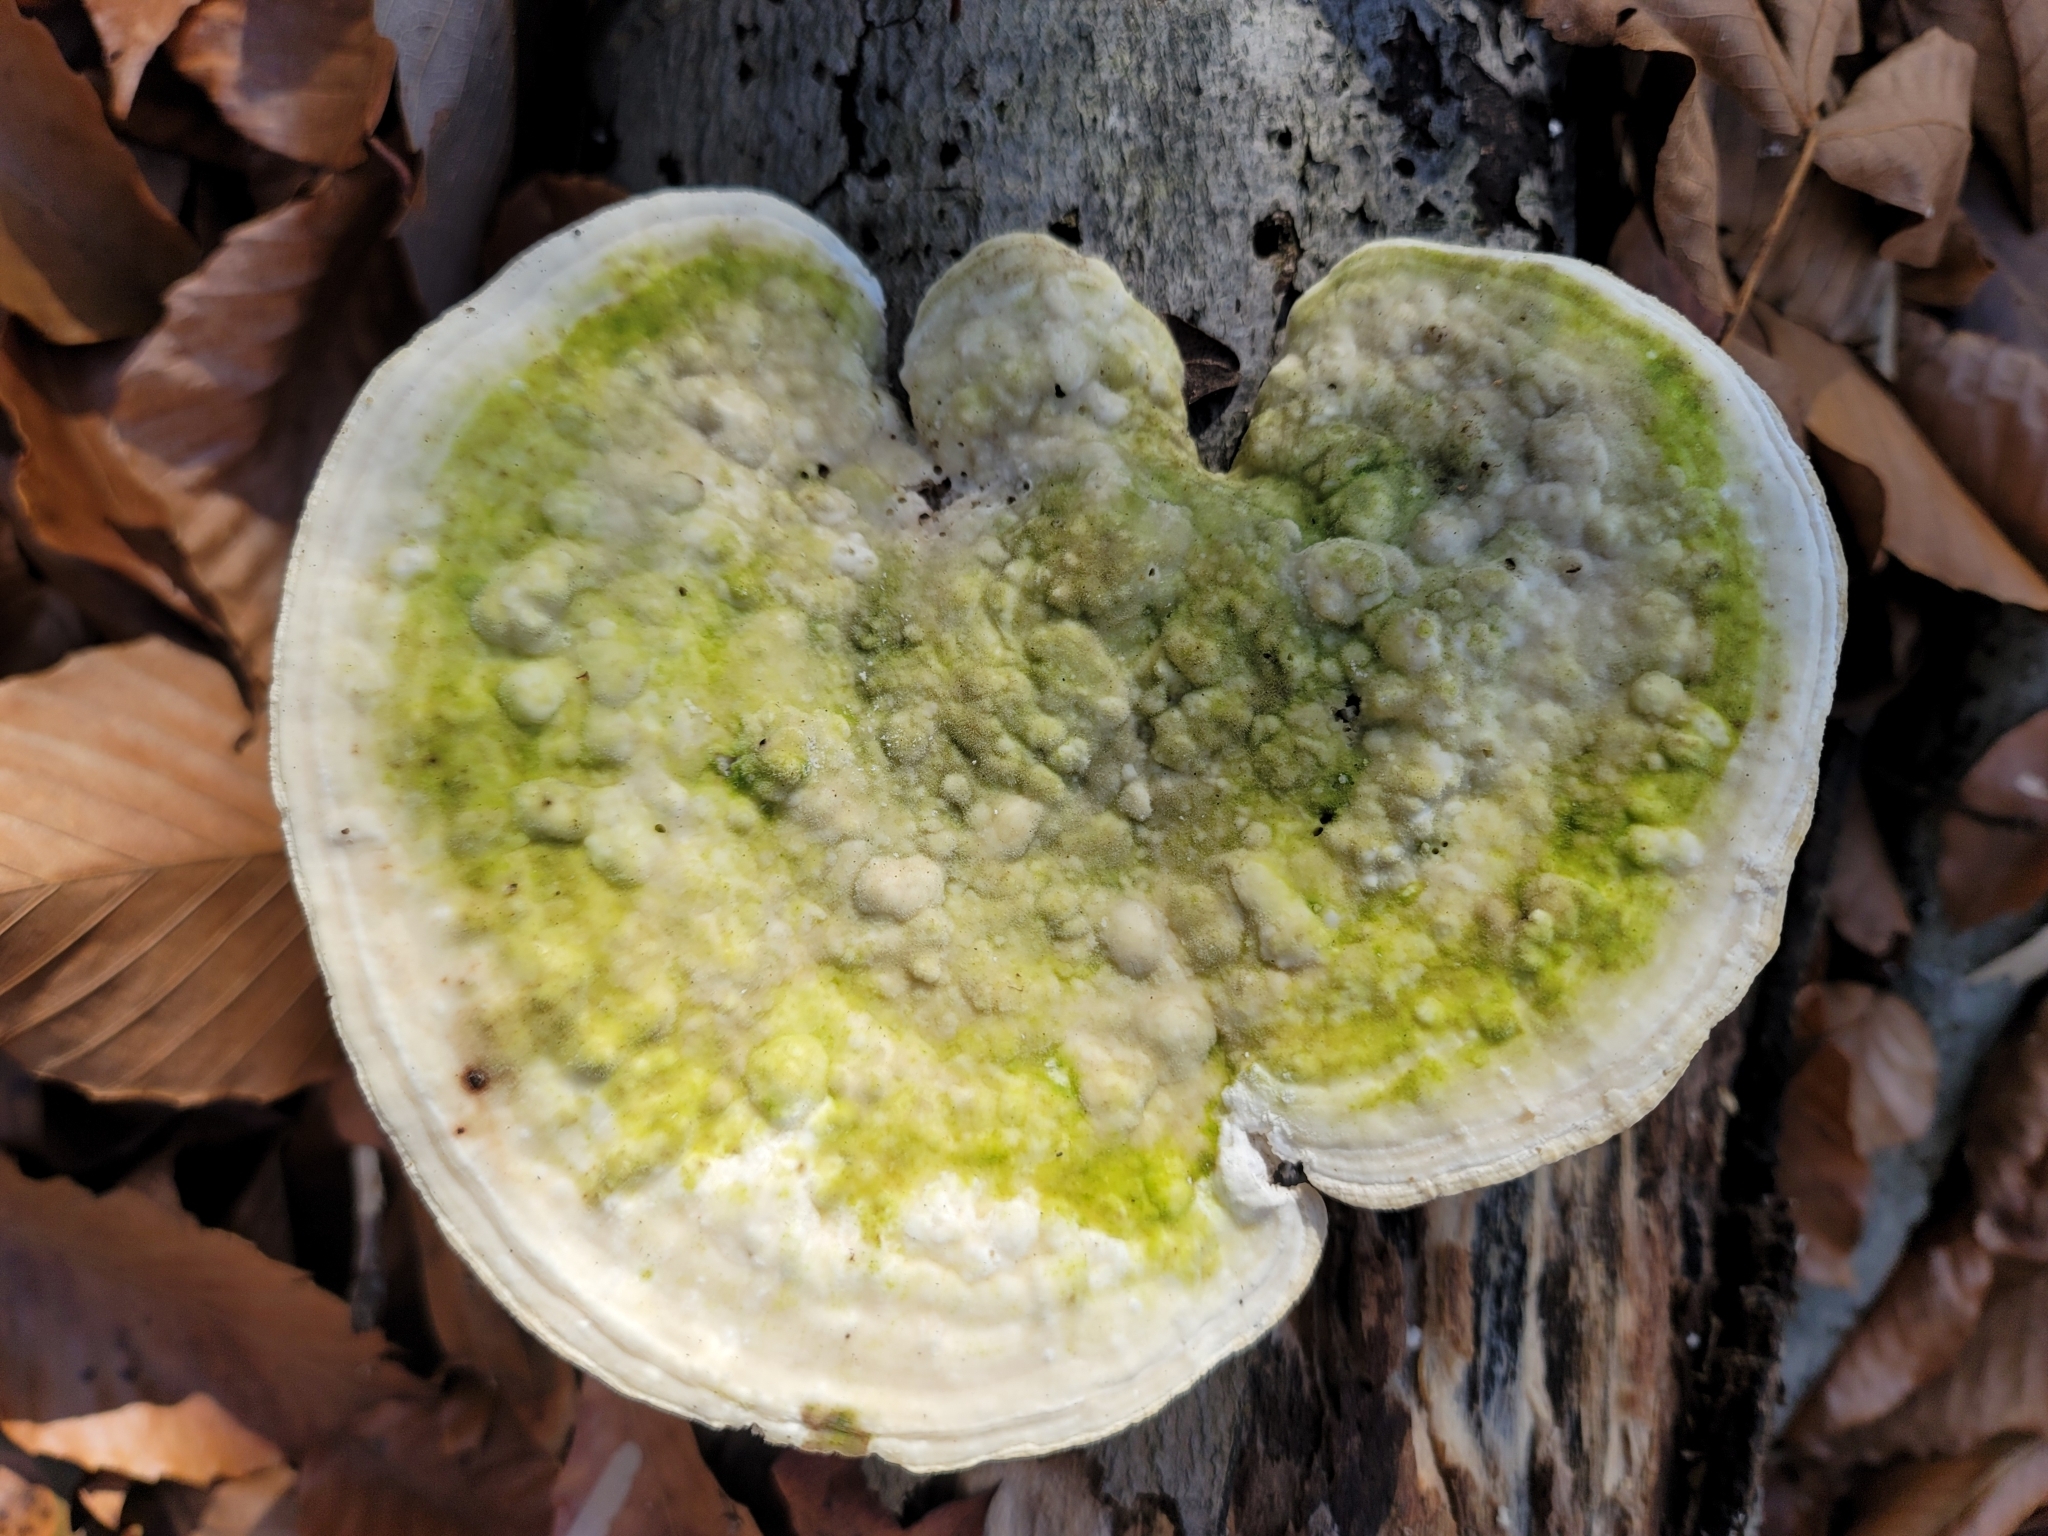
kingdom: Fungi
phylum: Basidiomycota
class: Agaricomycetes
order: Polyporales
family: Polyporaceae
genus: Trametes
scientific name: Trametes gibbosa
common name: Lumpy bracket
